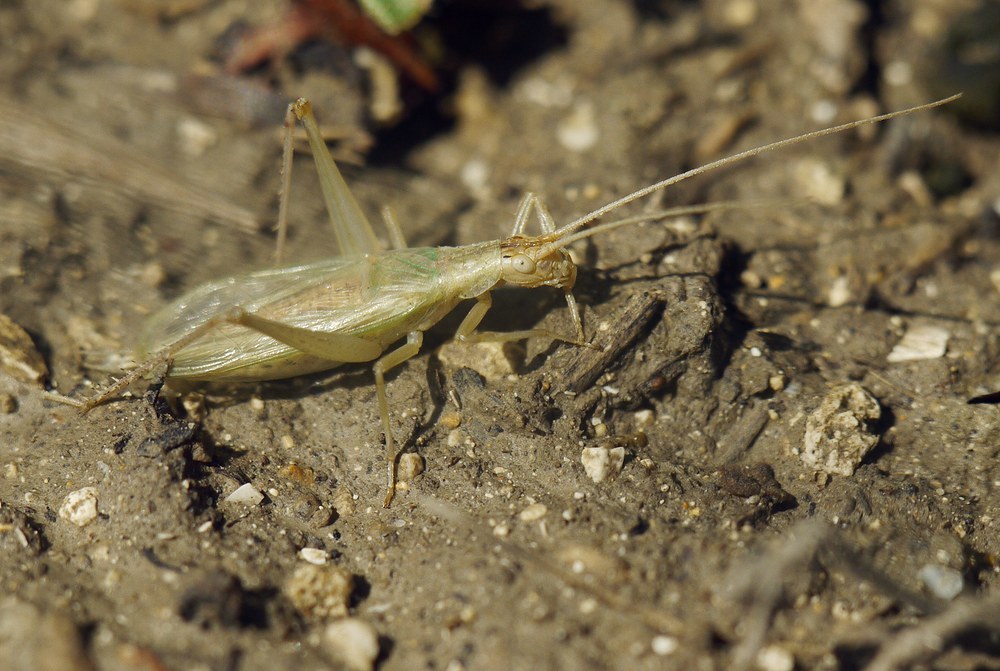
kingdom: Animalia
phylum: Arthropoda
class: Insecta
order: Orthoptera
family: Gryllidae
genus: Oecanthus
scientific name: Oecanthus pellucens
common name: Tree-cricket
